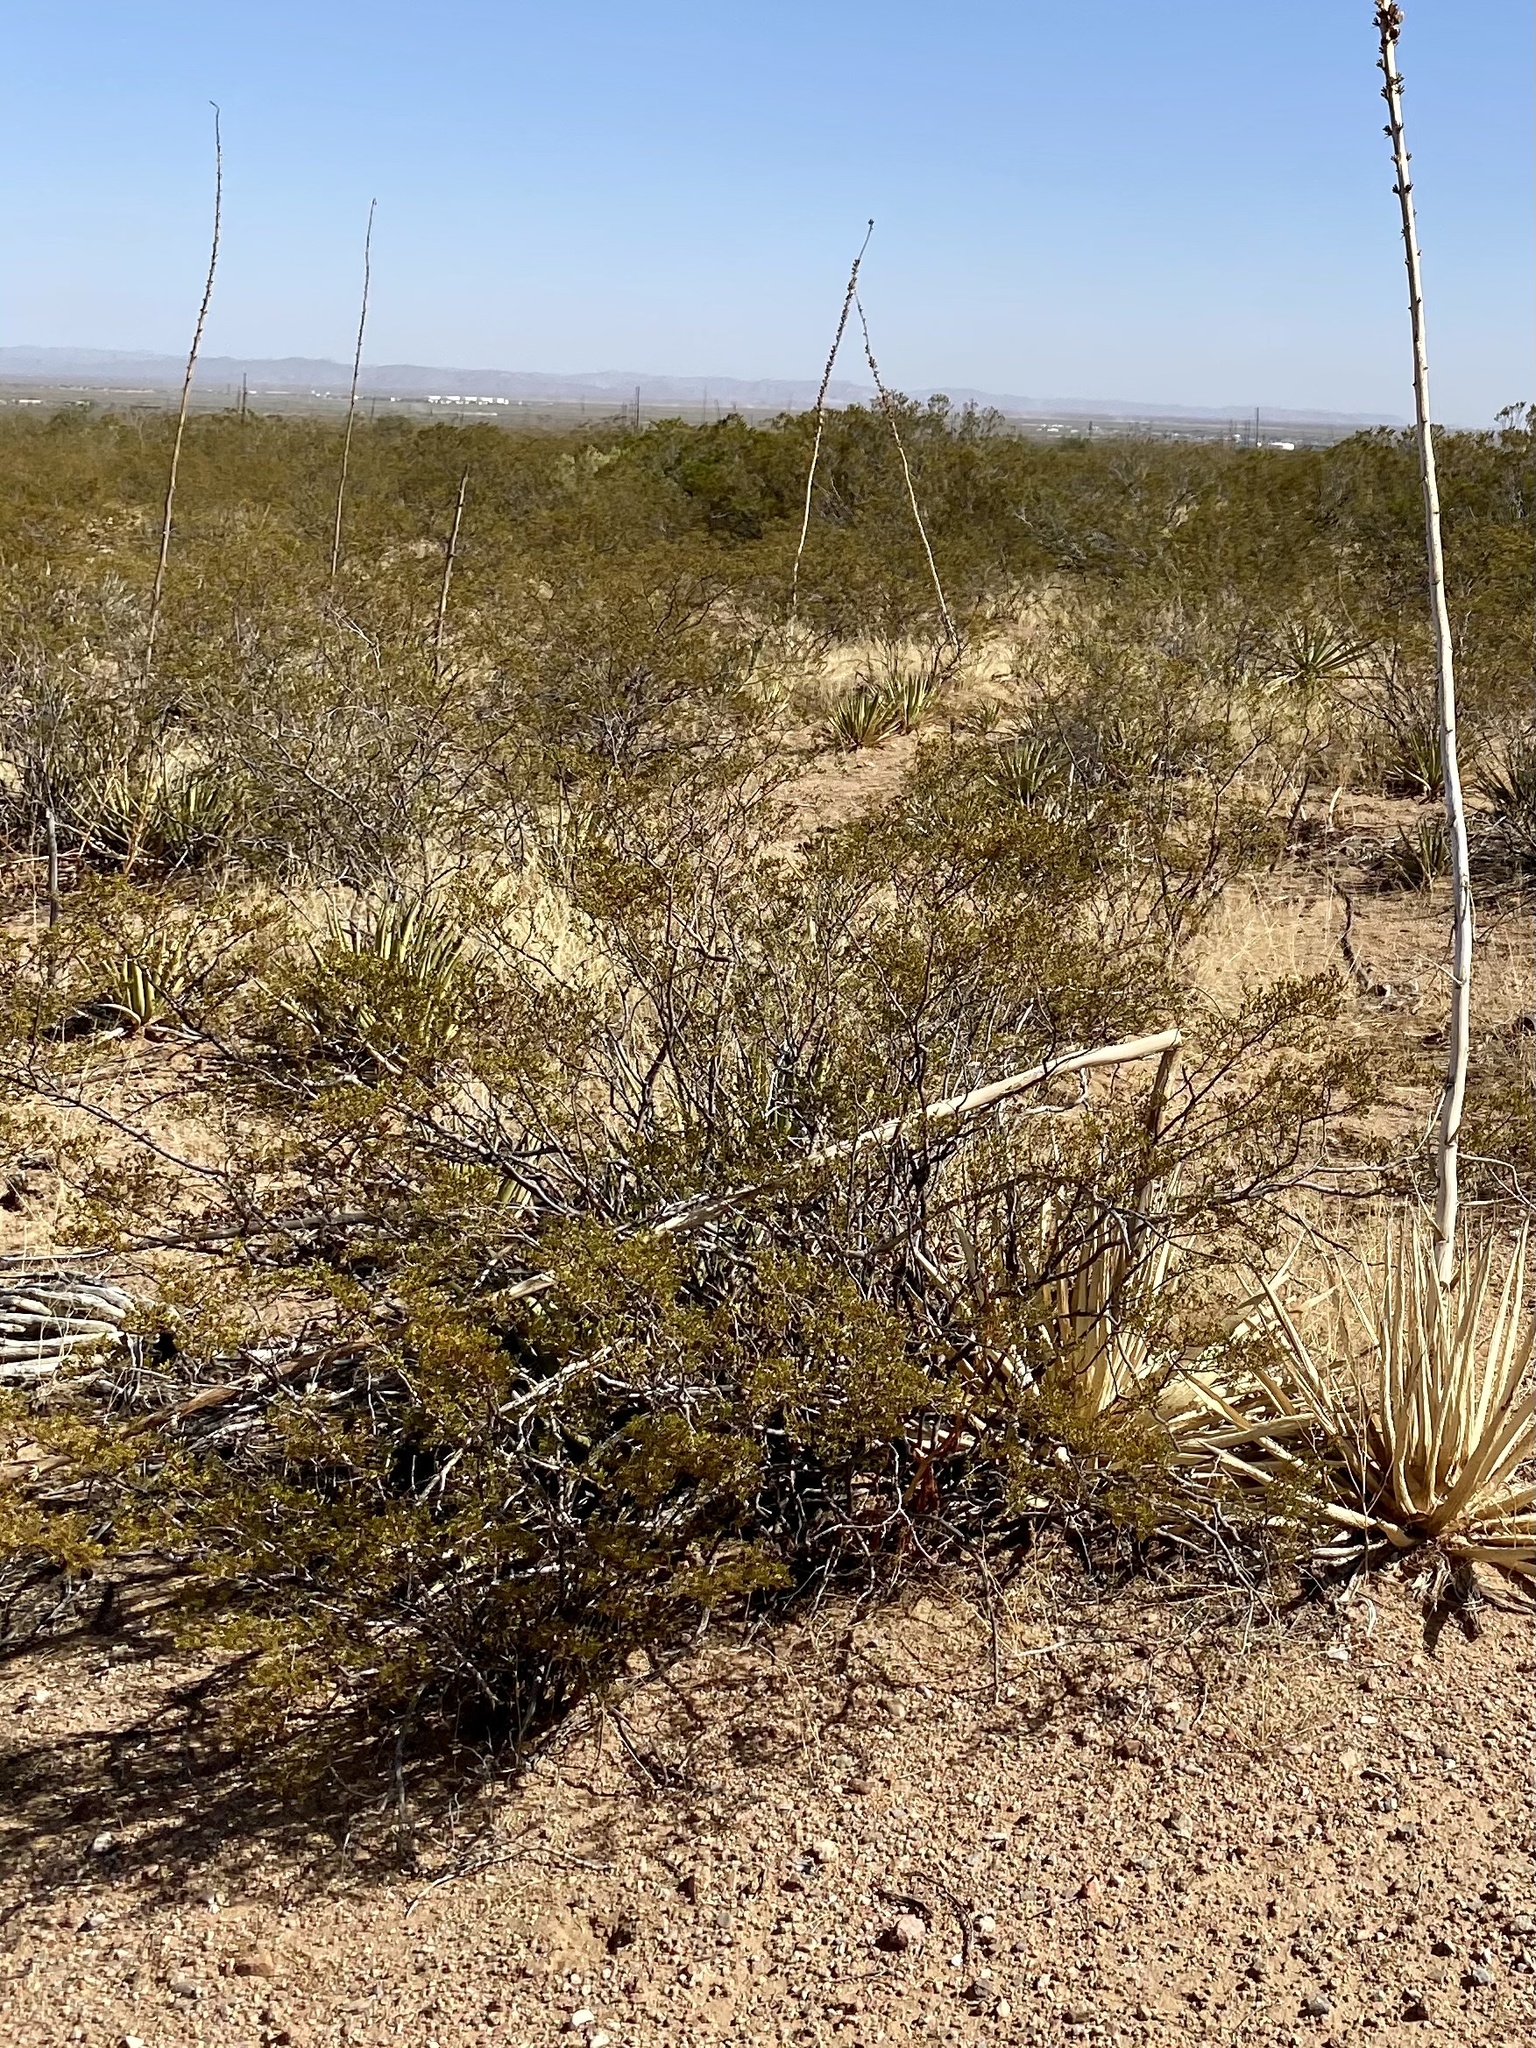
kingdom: Plantae
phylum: Tracheophyta
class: Magnoliopsida
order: Zygophyllales
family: Zygophyllaceae
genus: Larrea
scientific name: Larrea tridentata
